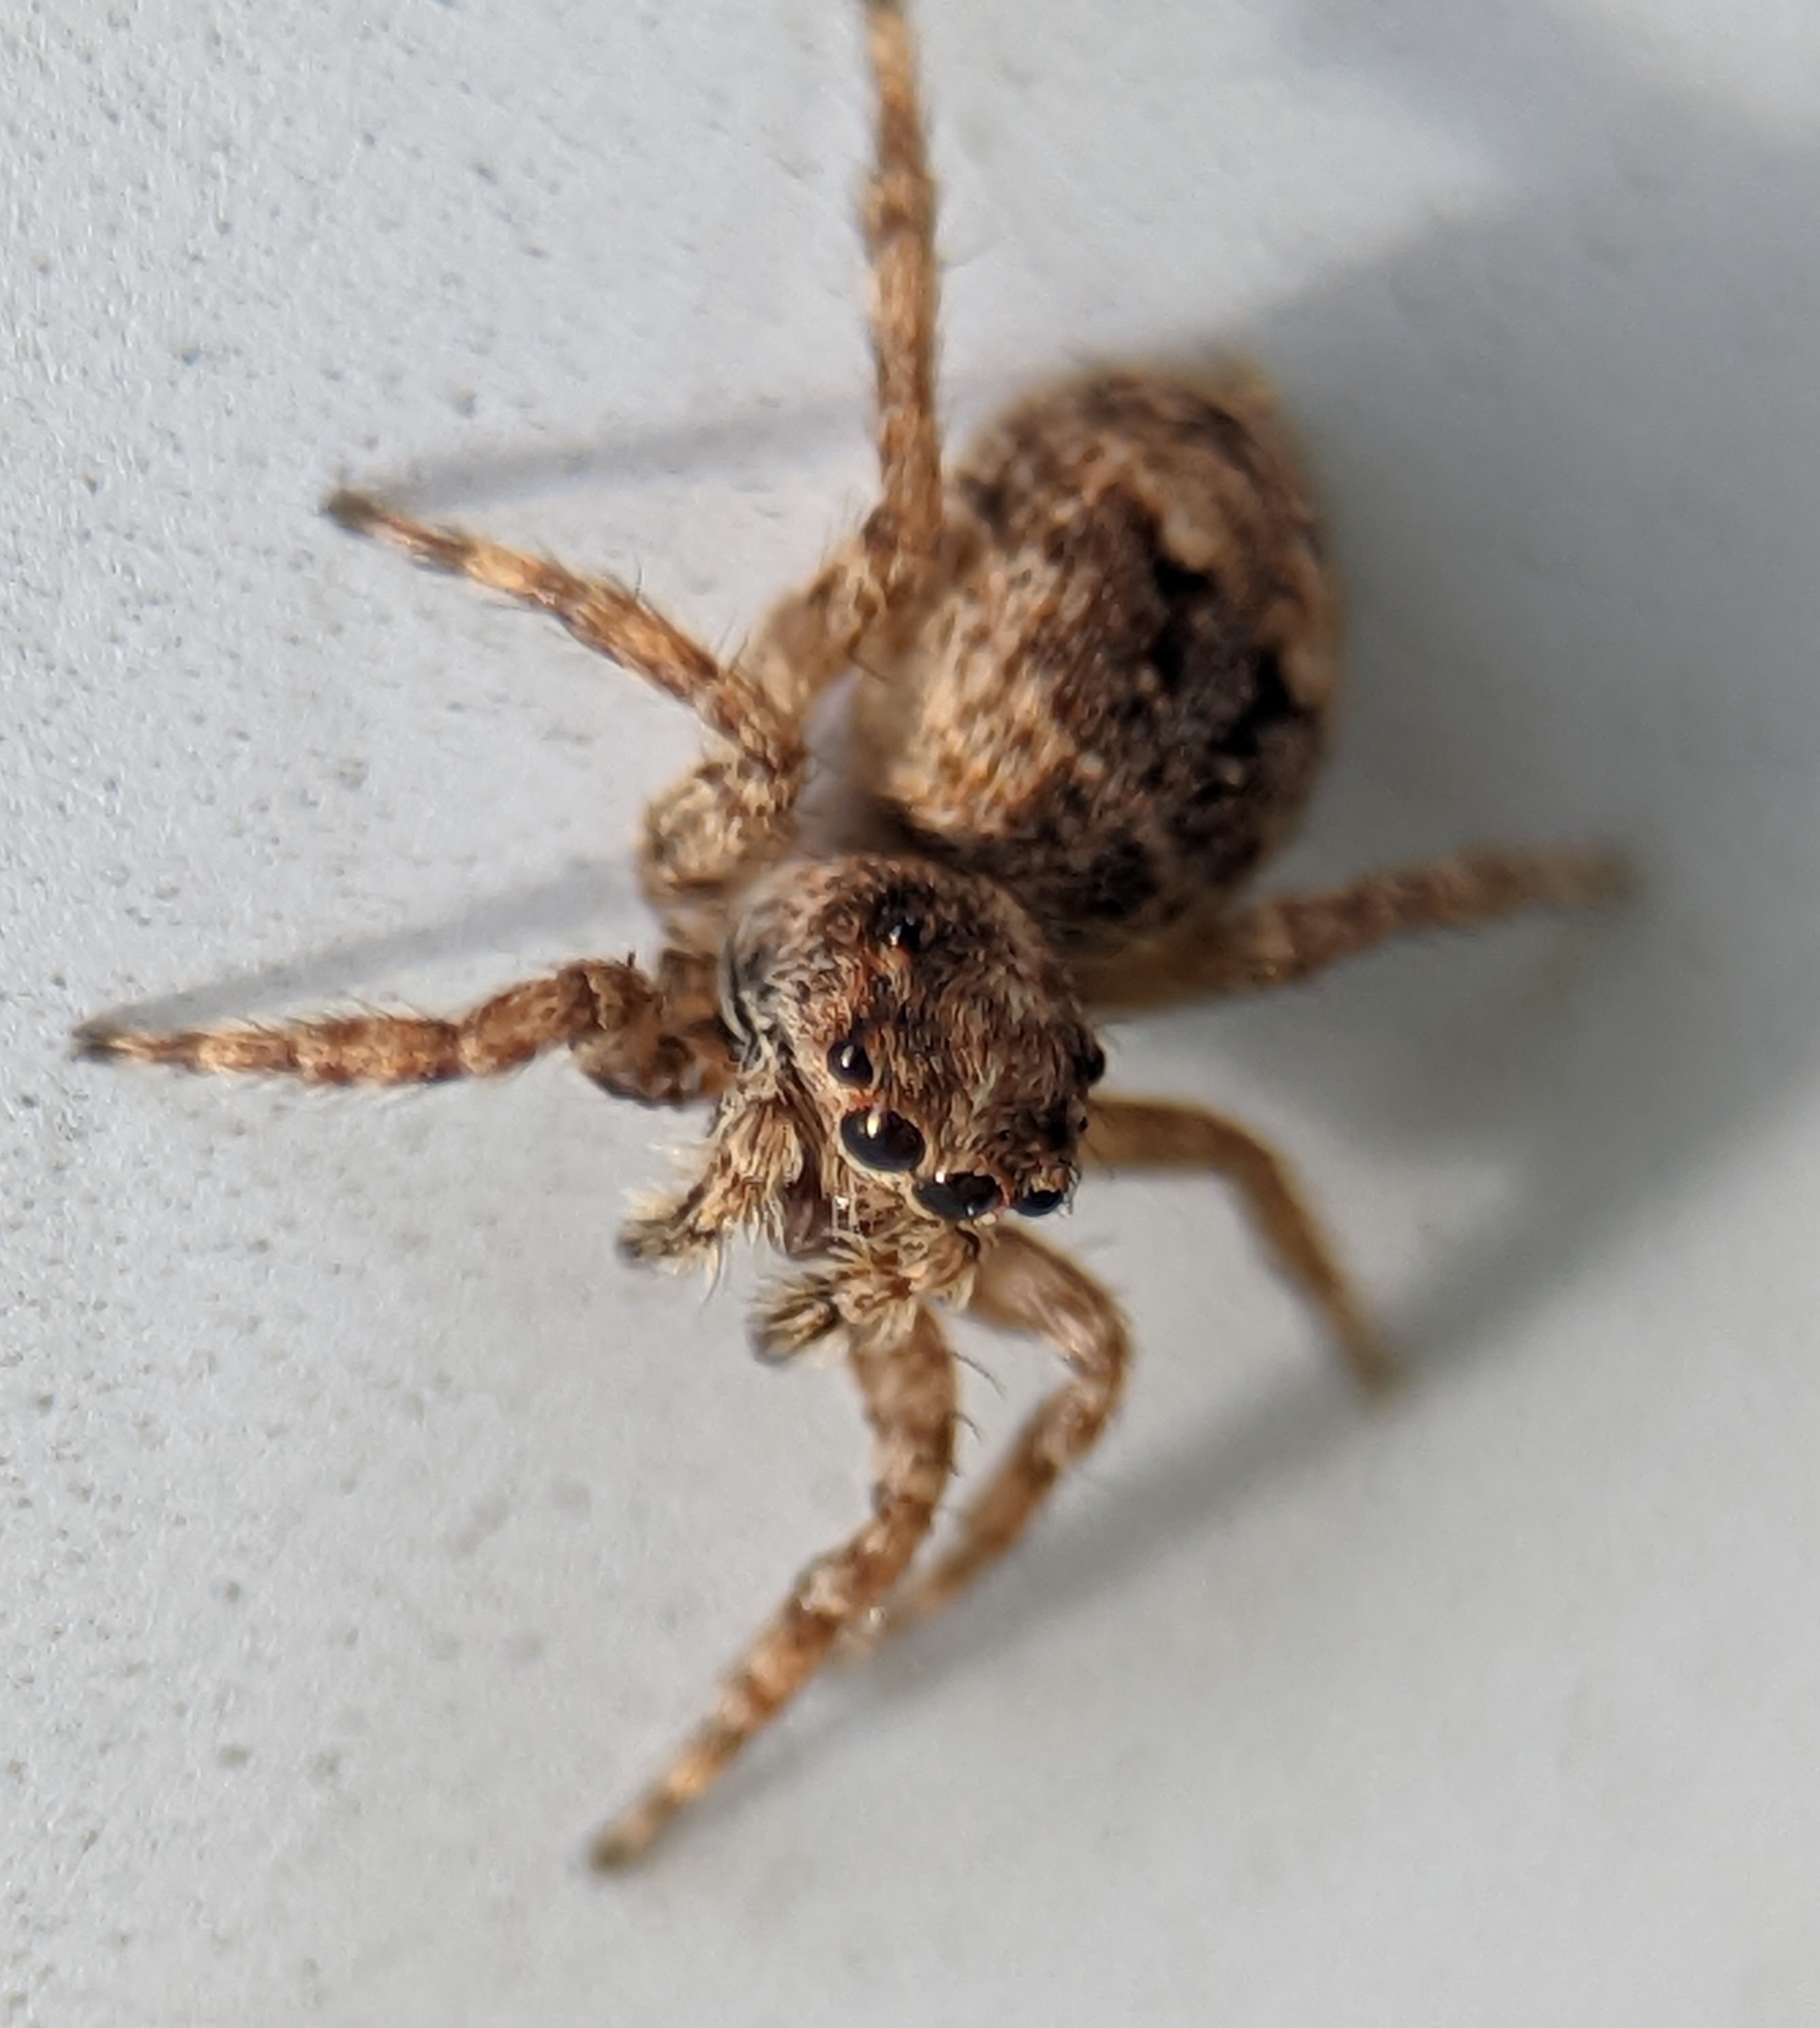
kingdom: Animalia
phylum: Arthropoda
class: Arachnida
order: Araneae
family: Salticidae
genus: Attulus
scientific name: Attulus fasciger
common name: Asiatic wall jumping spider
